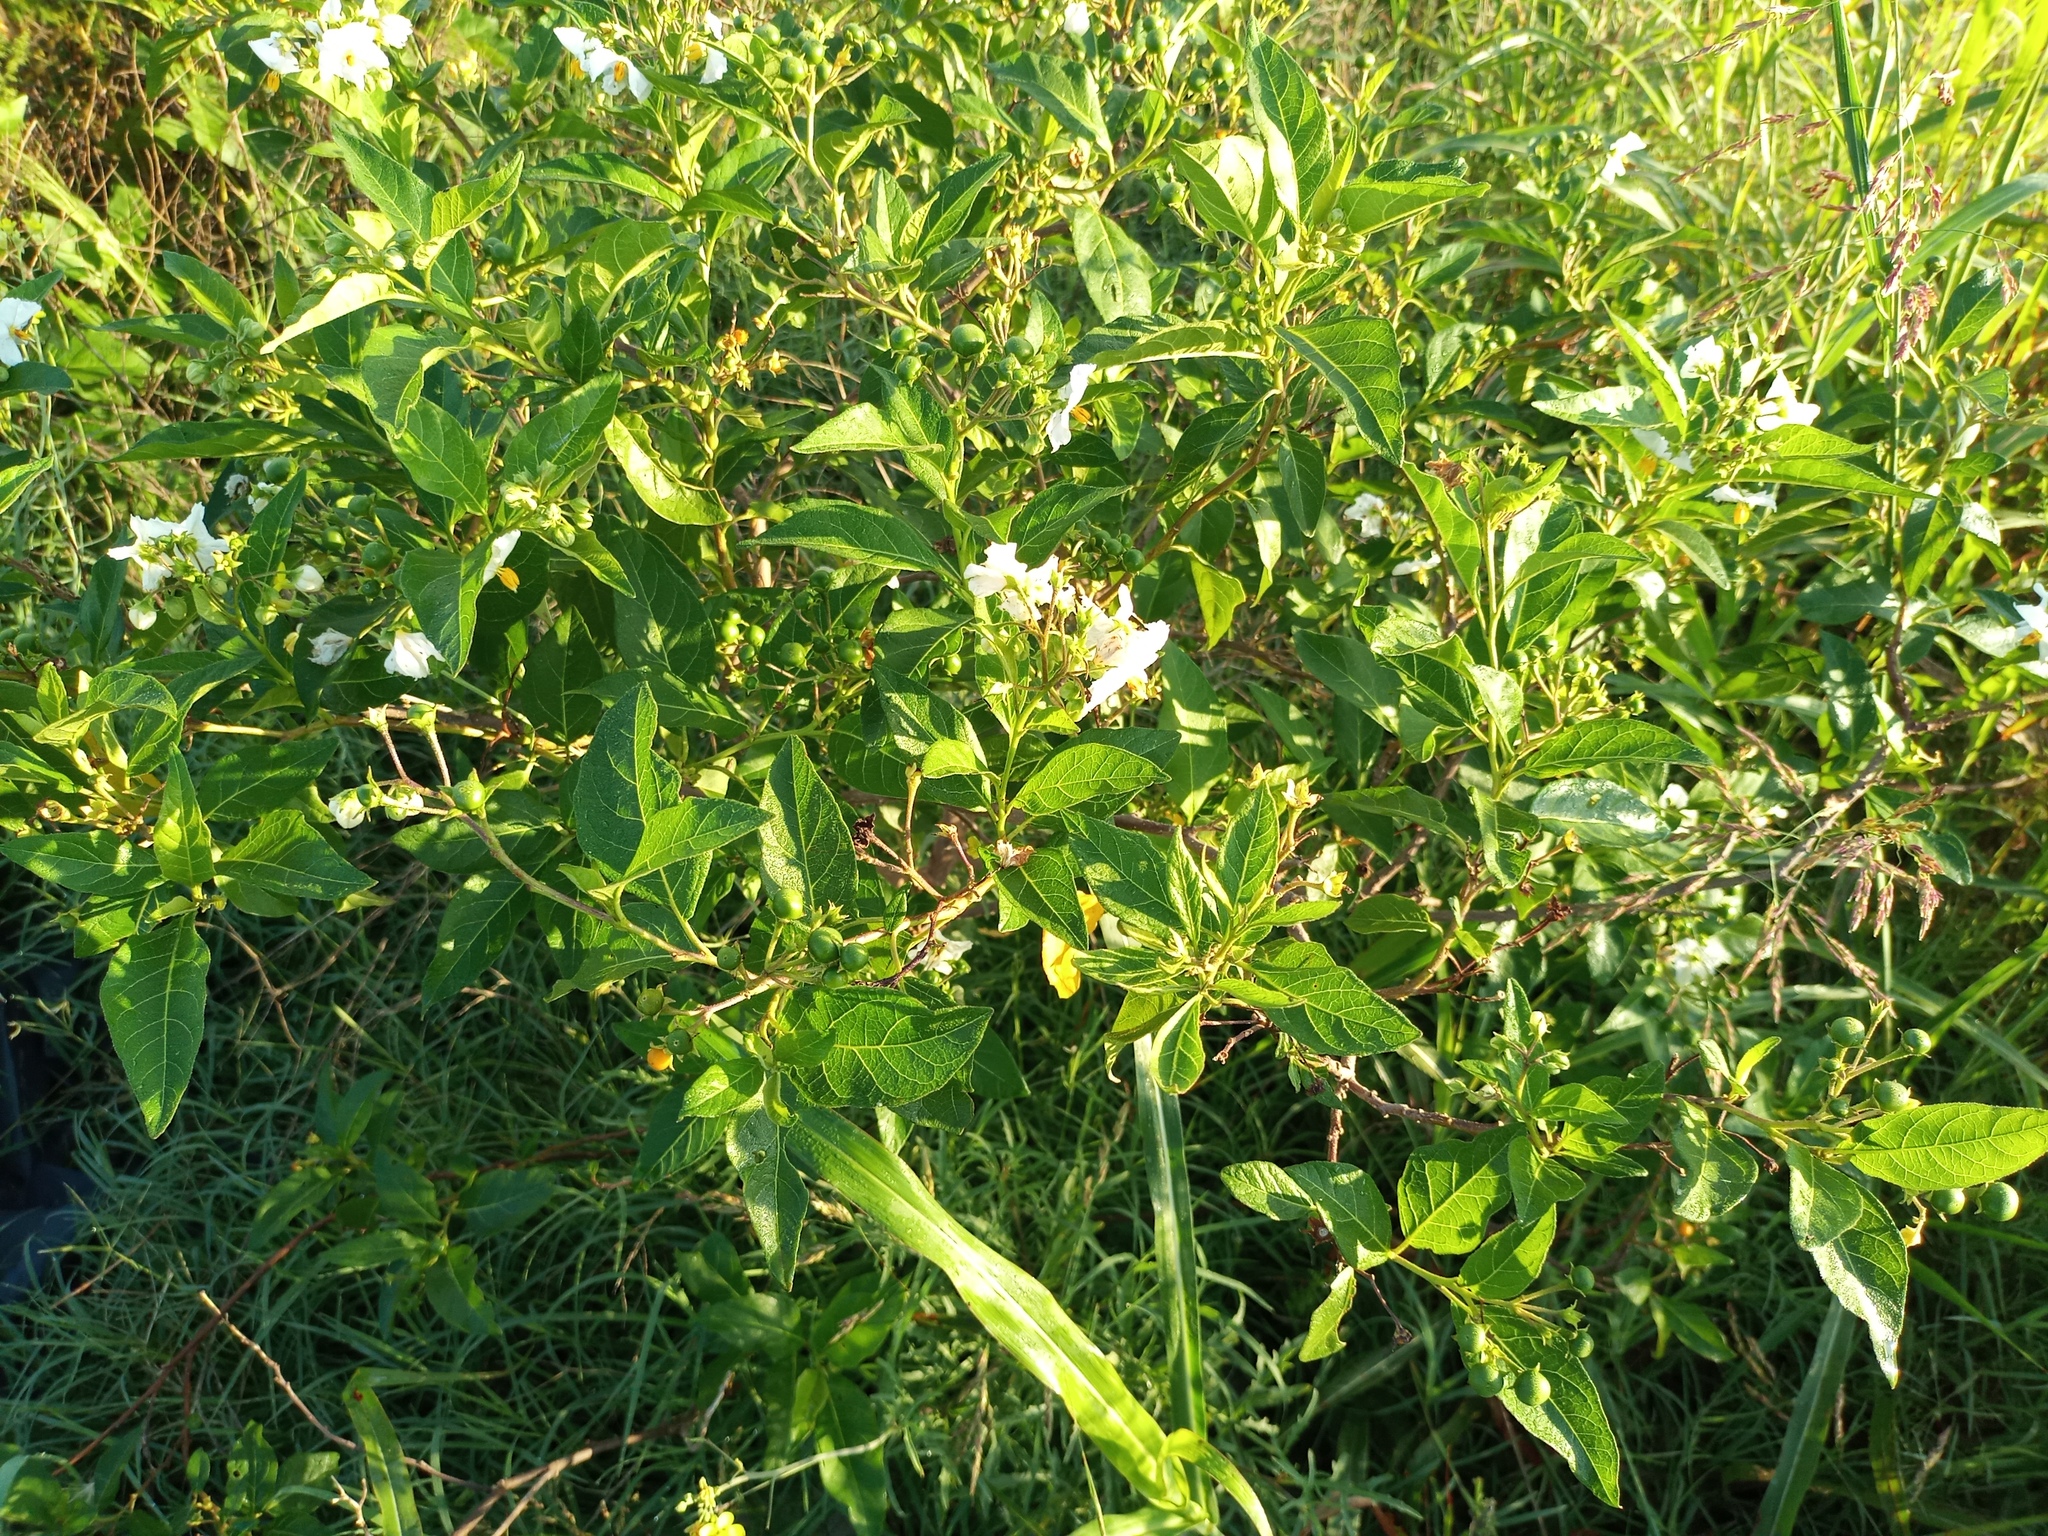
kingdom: Plantae
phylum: Tracheophyta
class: Magnoliopsida
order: Solanales
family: Solanaceae
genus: Solanum
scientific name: Solanum bonariense
